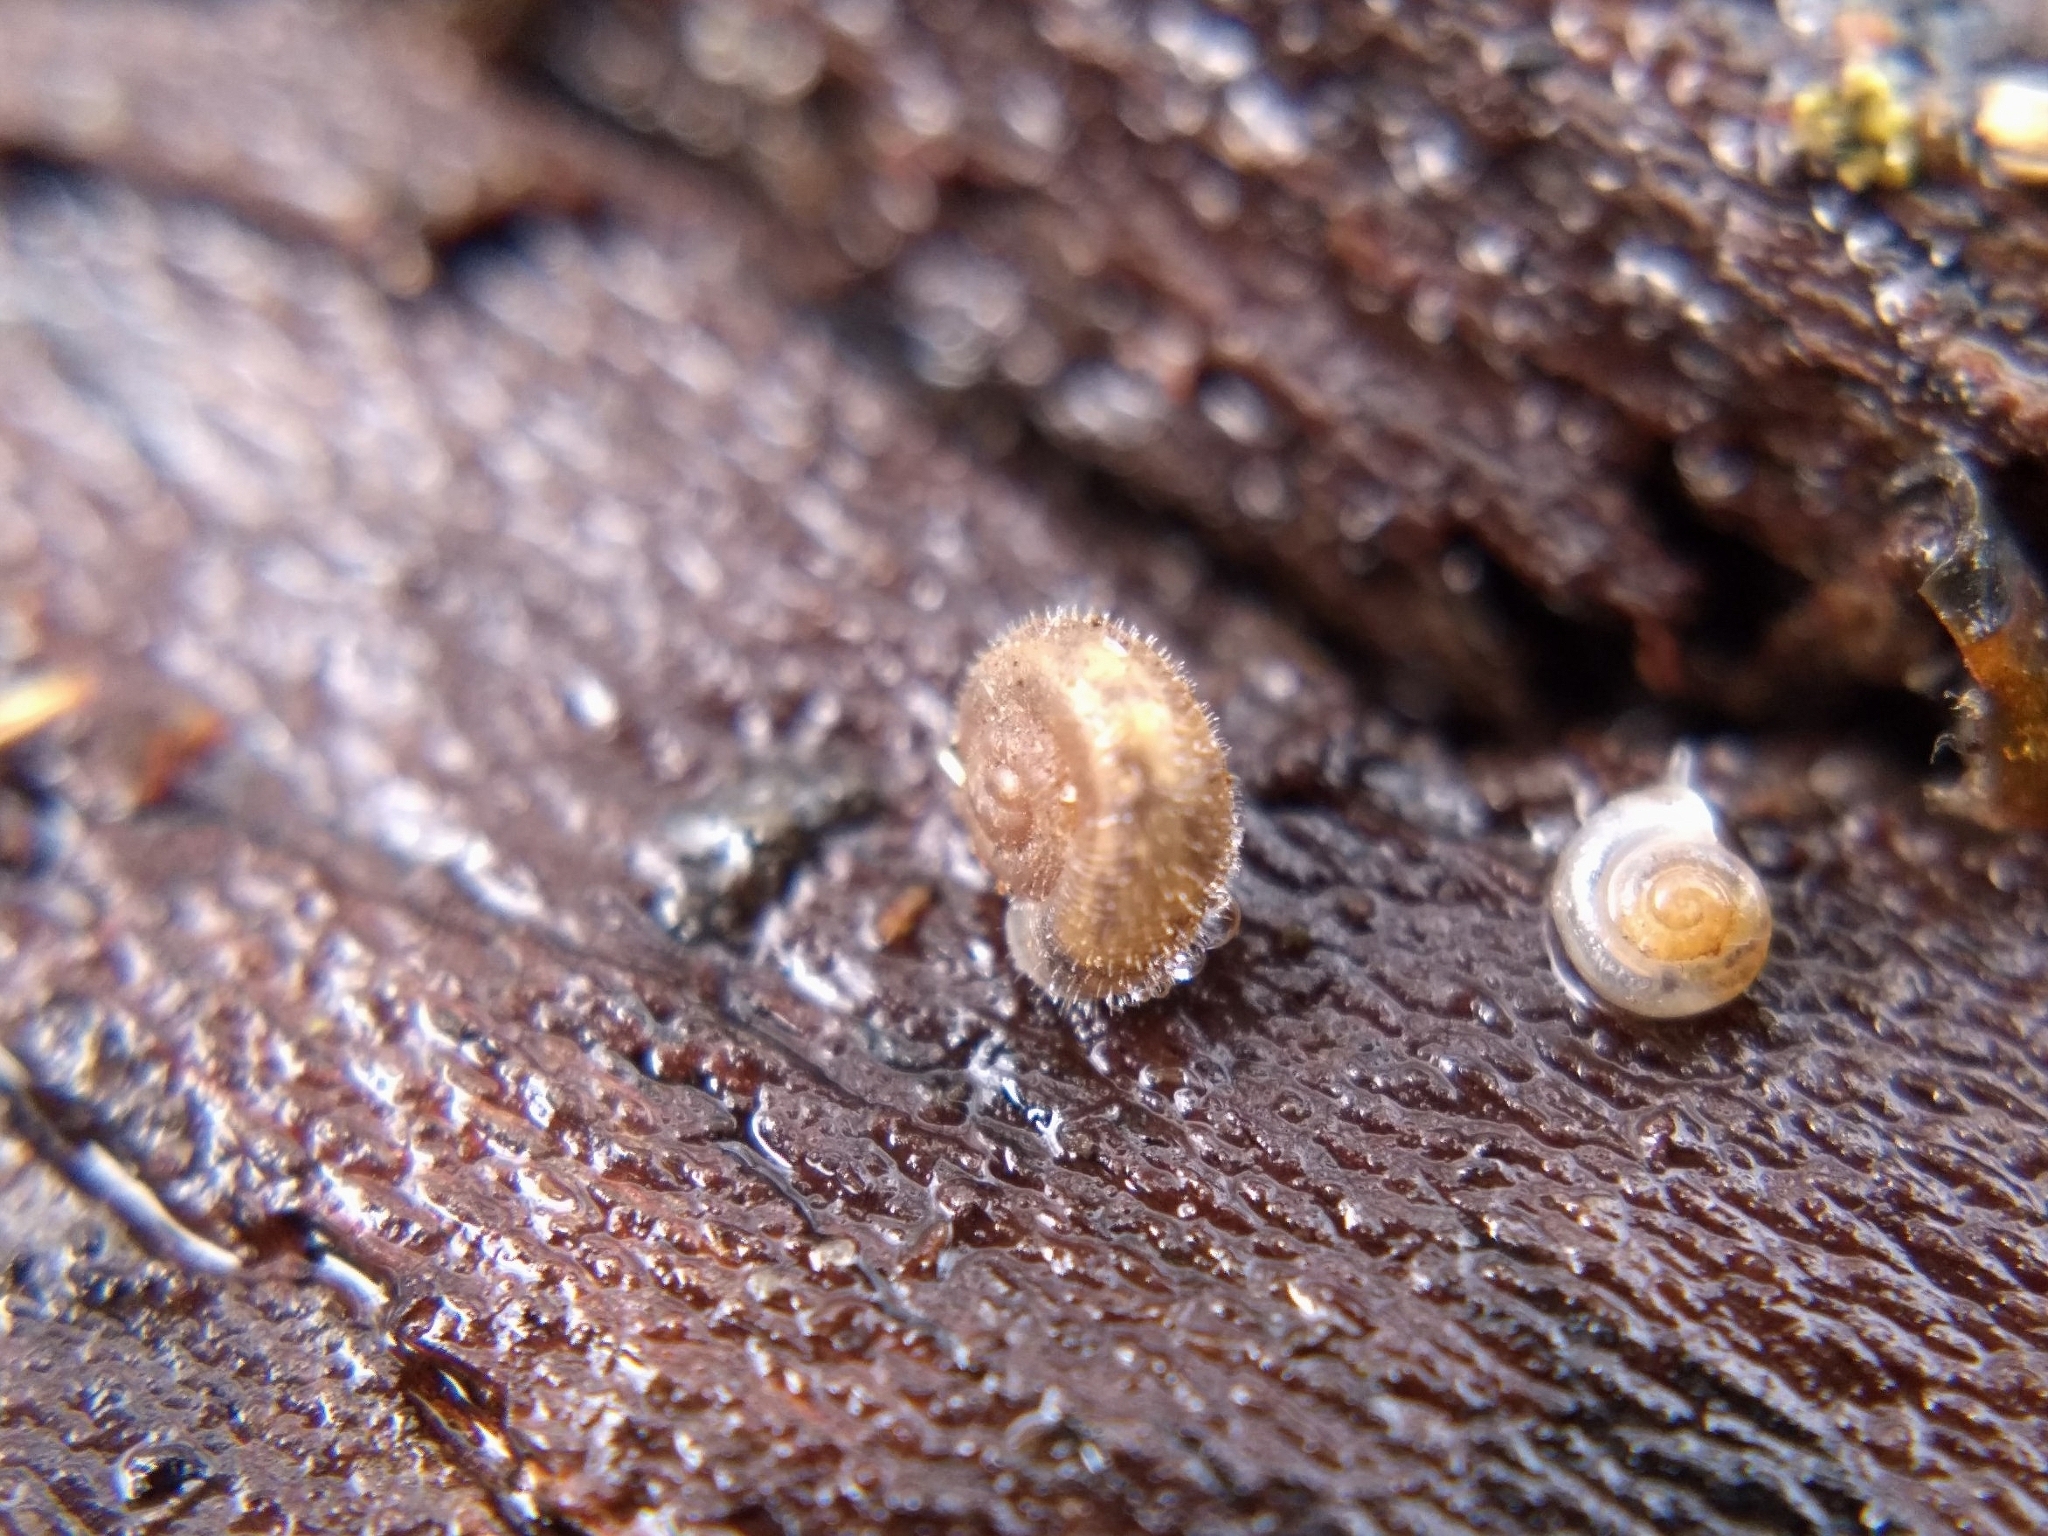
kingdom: Animalia
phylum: Mollusca
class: Gastropoda
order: Stylommatophora
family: Hygromiidae
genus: Trochulus
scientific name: Trochulus hispidus
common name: Hairy snail
